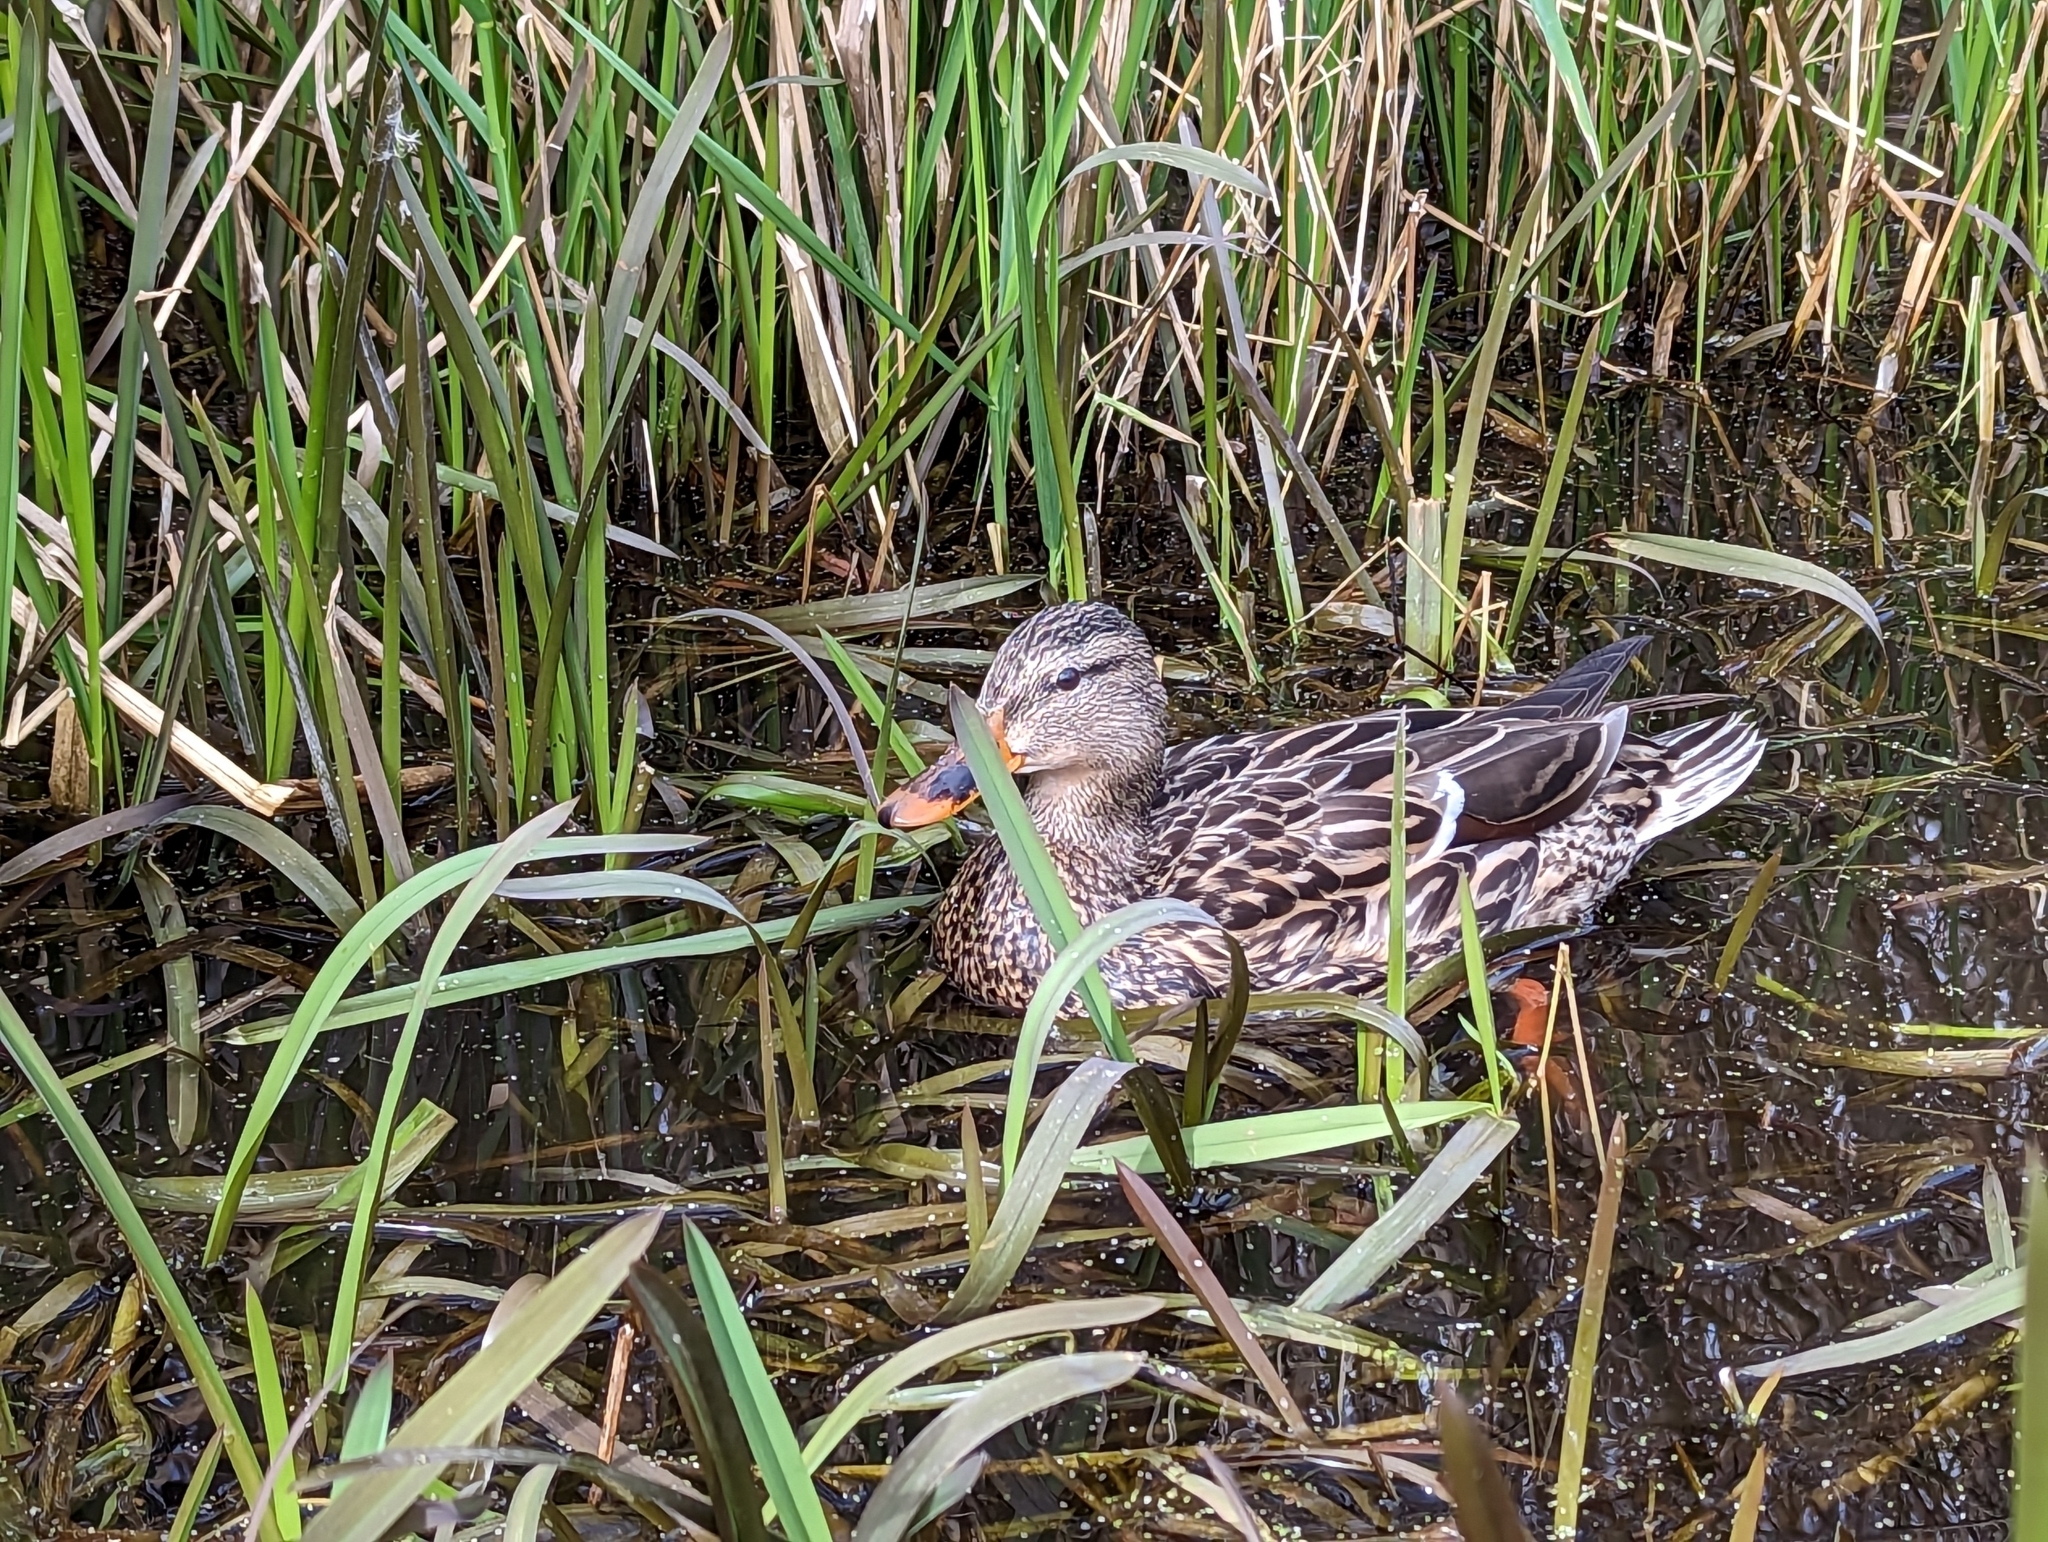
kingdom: Animalia
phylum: Chordata
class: Aves
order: Anseriformes
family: Anatidae
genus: Anas
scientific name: Anas platyrhynchos
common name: Mallard
